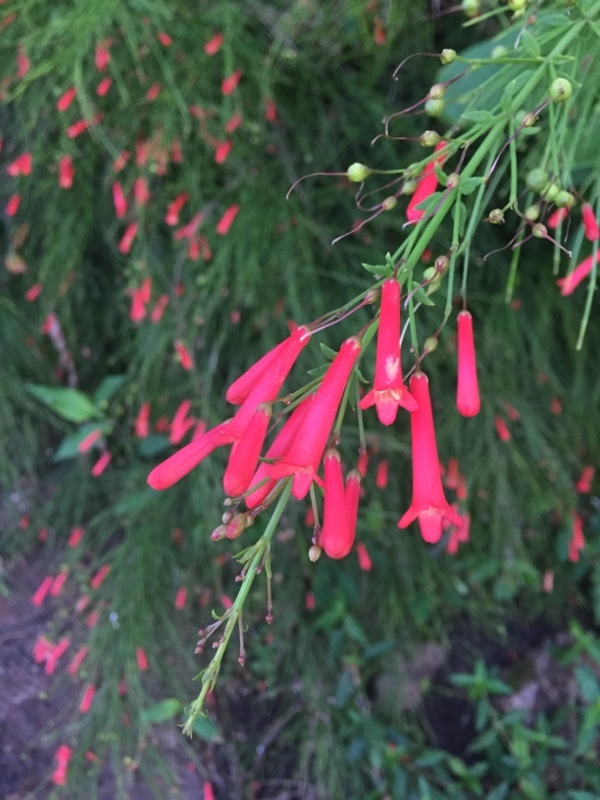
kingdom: Plantae
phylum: Tracheophyta
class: Magnoliopsida
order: Lamiales
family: Plantaginaceae
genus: Russelia
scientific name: Russelia equisetiformis
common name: Fountainbush
